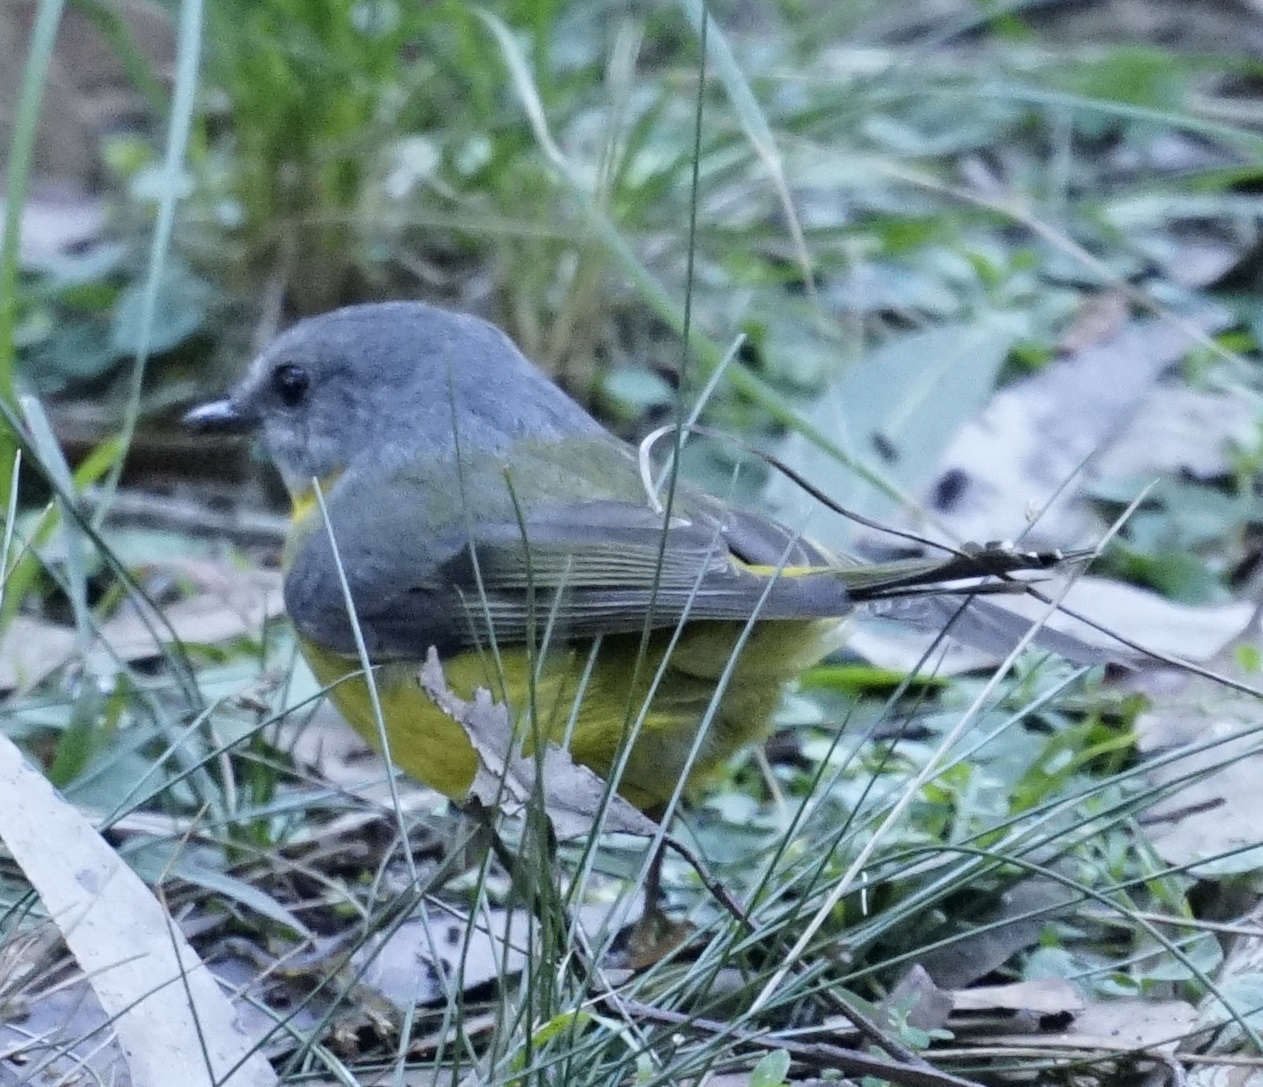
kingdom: Animalia
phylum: Chordata
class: Aves
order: Passeriformes
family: Petroicidae
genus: Eopsaltria
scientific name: Eopsaltria australis
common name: Eastern yellow robin
